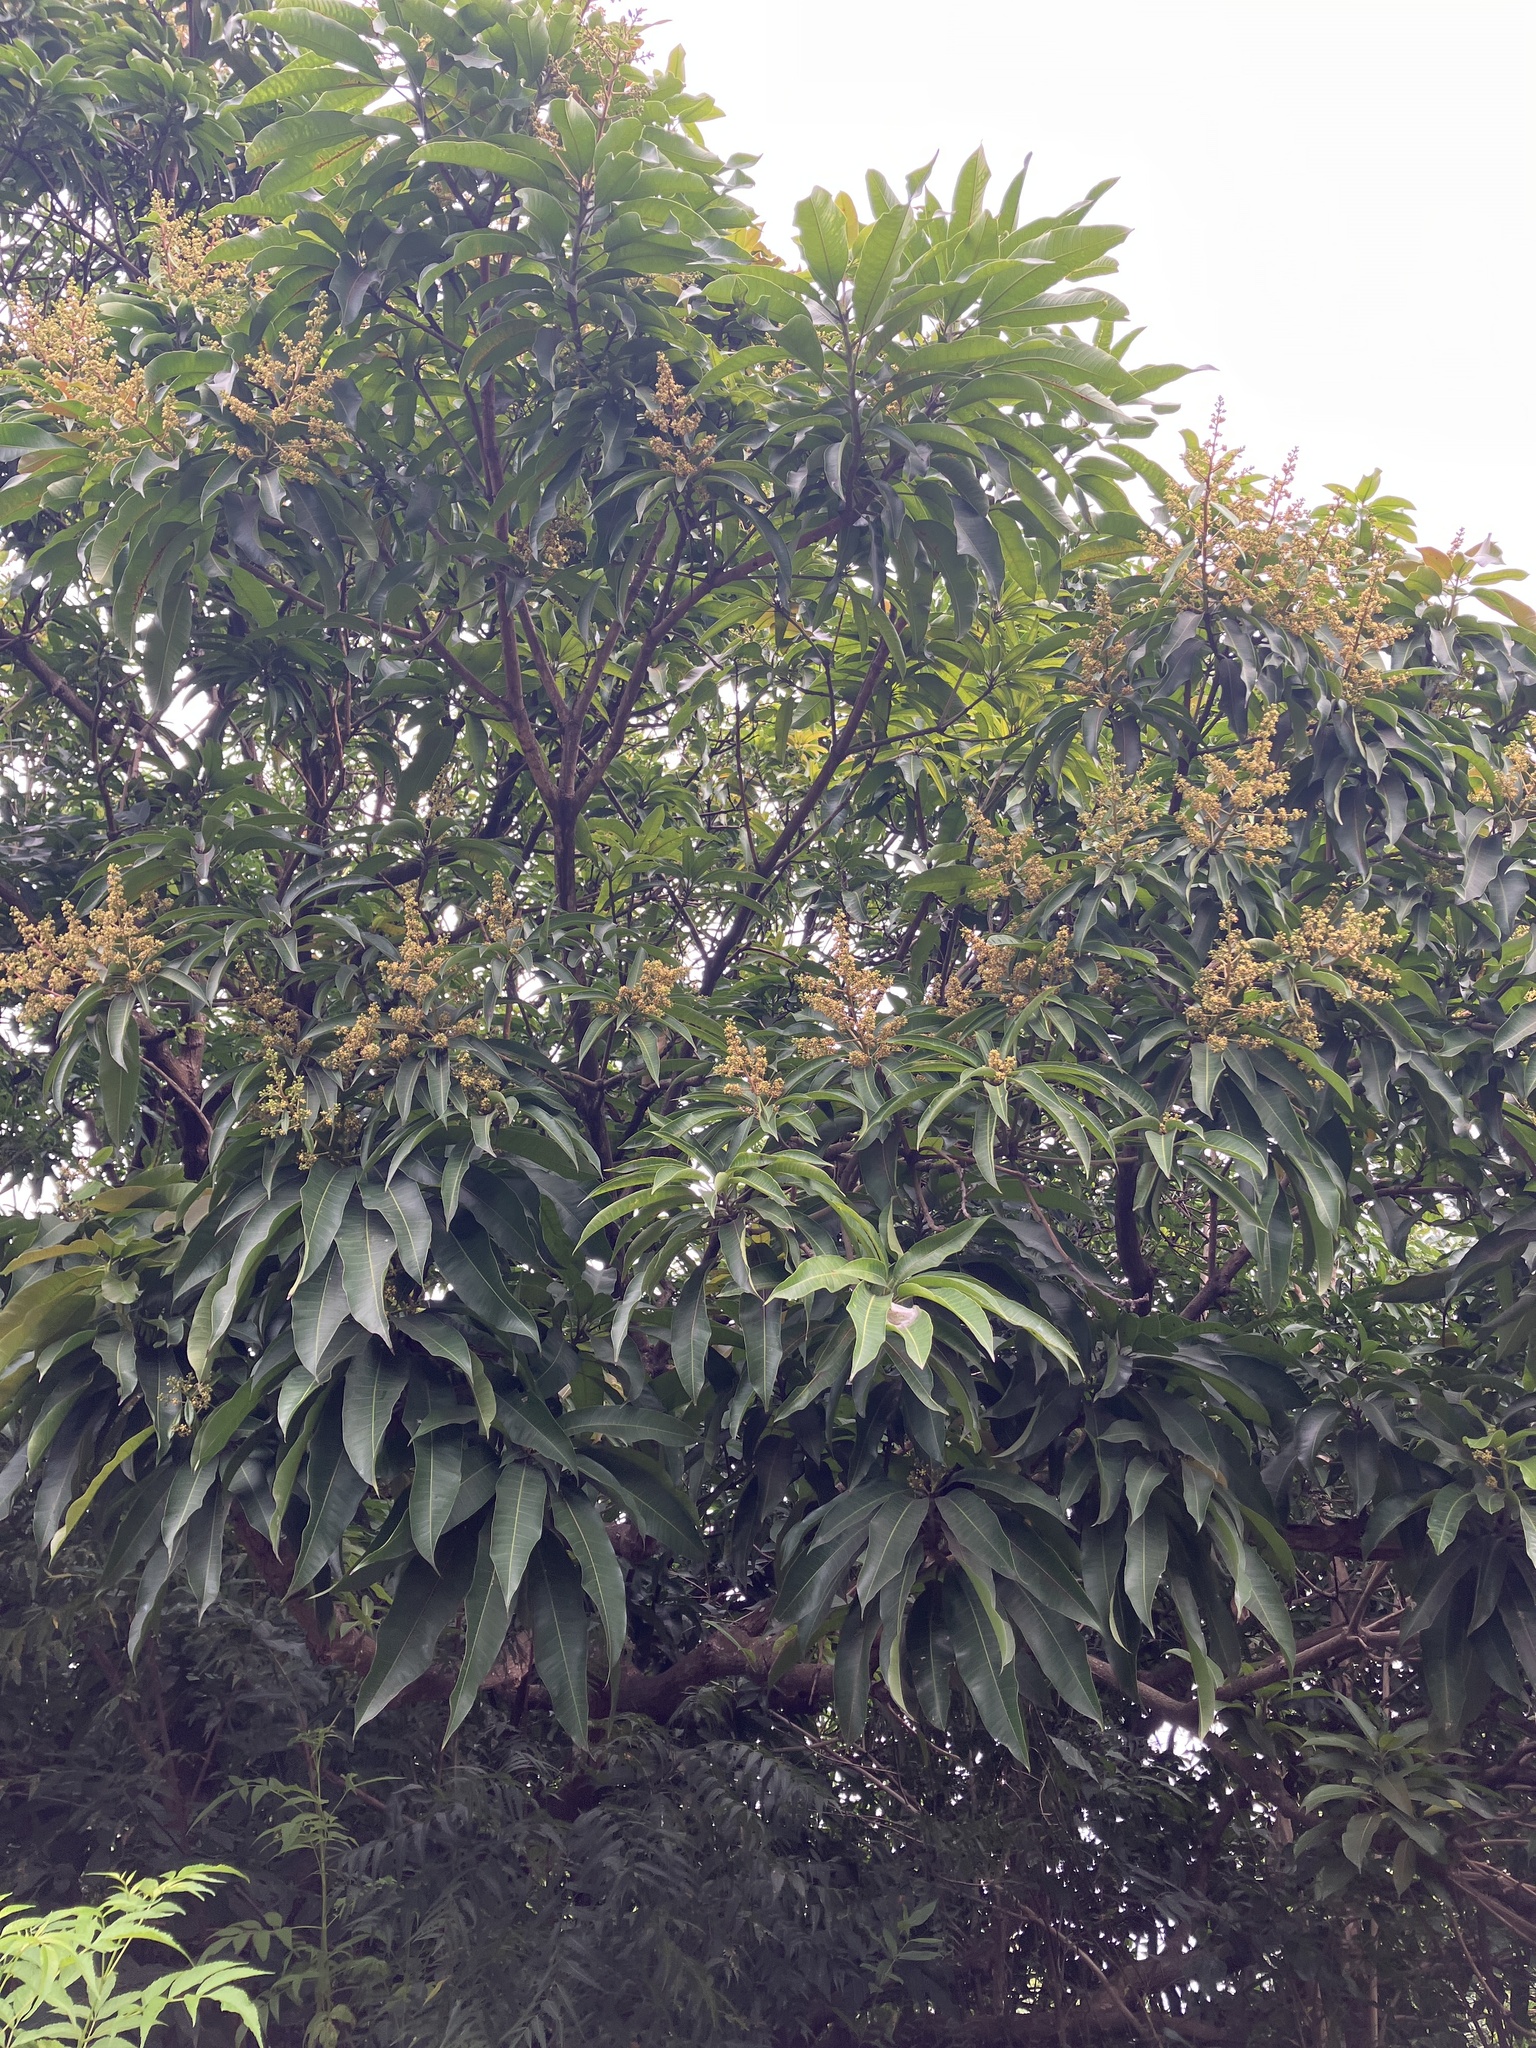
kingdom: Plantae
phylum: Tracheophyta
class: Magnoliopsida
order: Sapindales
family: Anacardiaceae
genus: Mangifera
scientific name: Mangifera indica
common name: Mango
